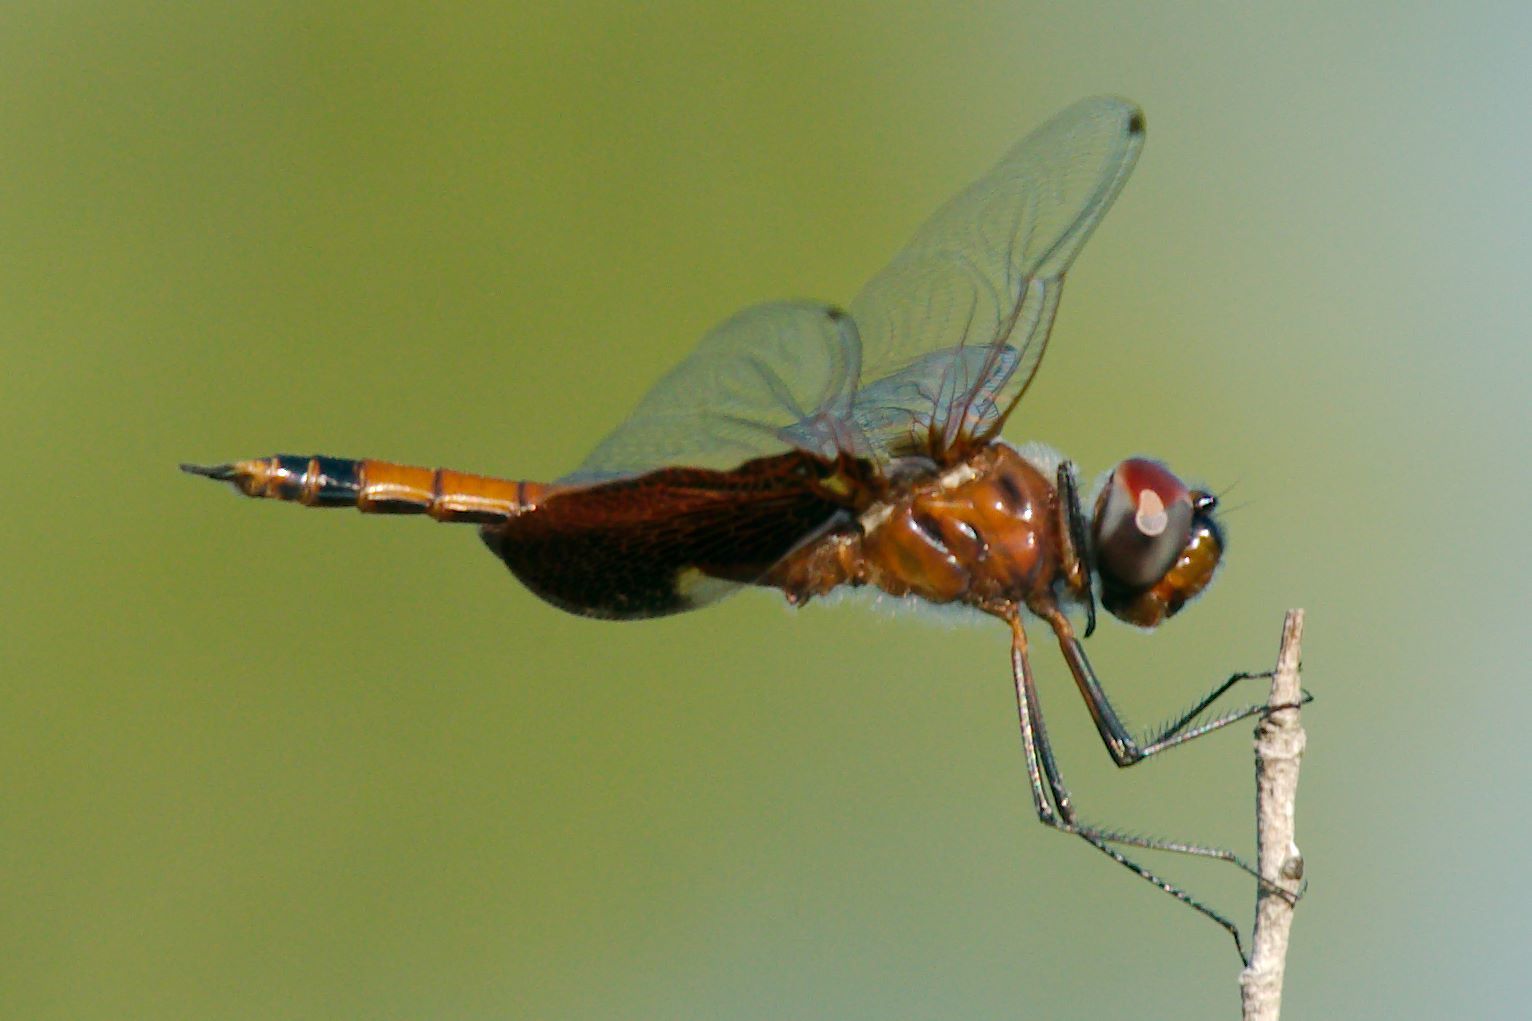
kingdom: Animalia
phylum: Arthropoda
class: Insecta
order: Odonata
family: Libellulidae
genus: Tramea
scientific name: Tramea carolina
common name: Carolina saddlebags
